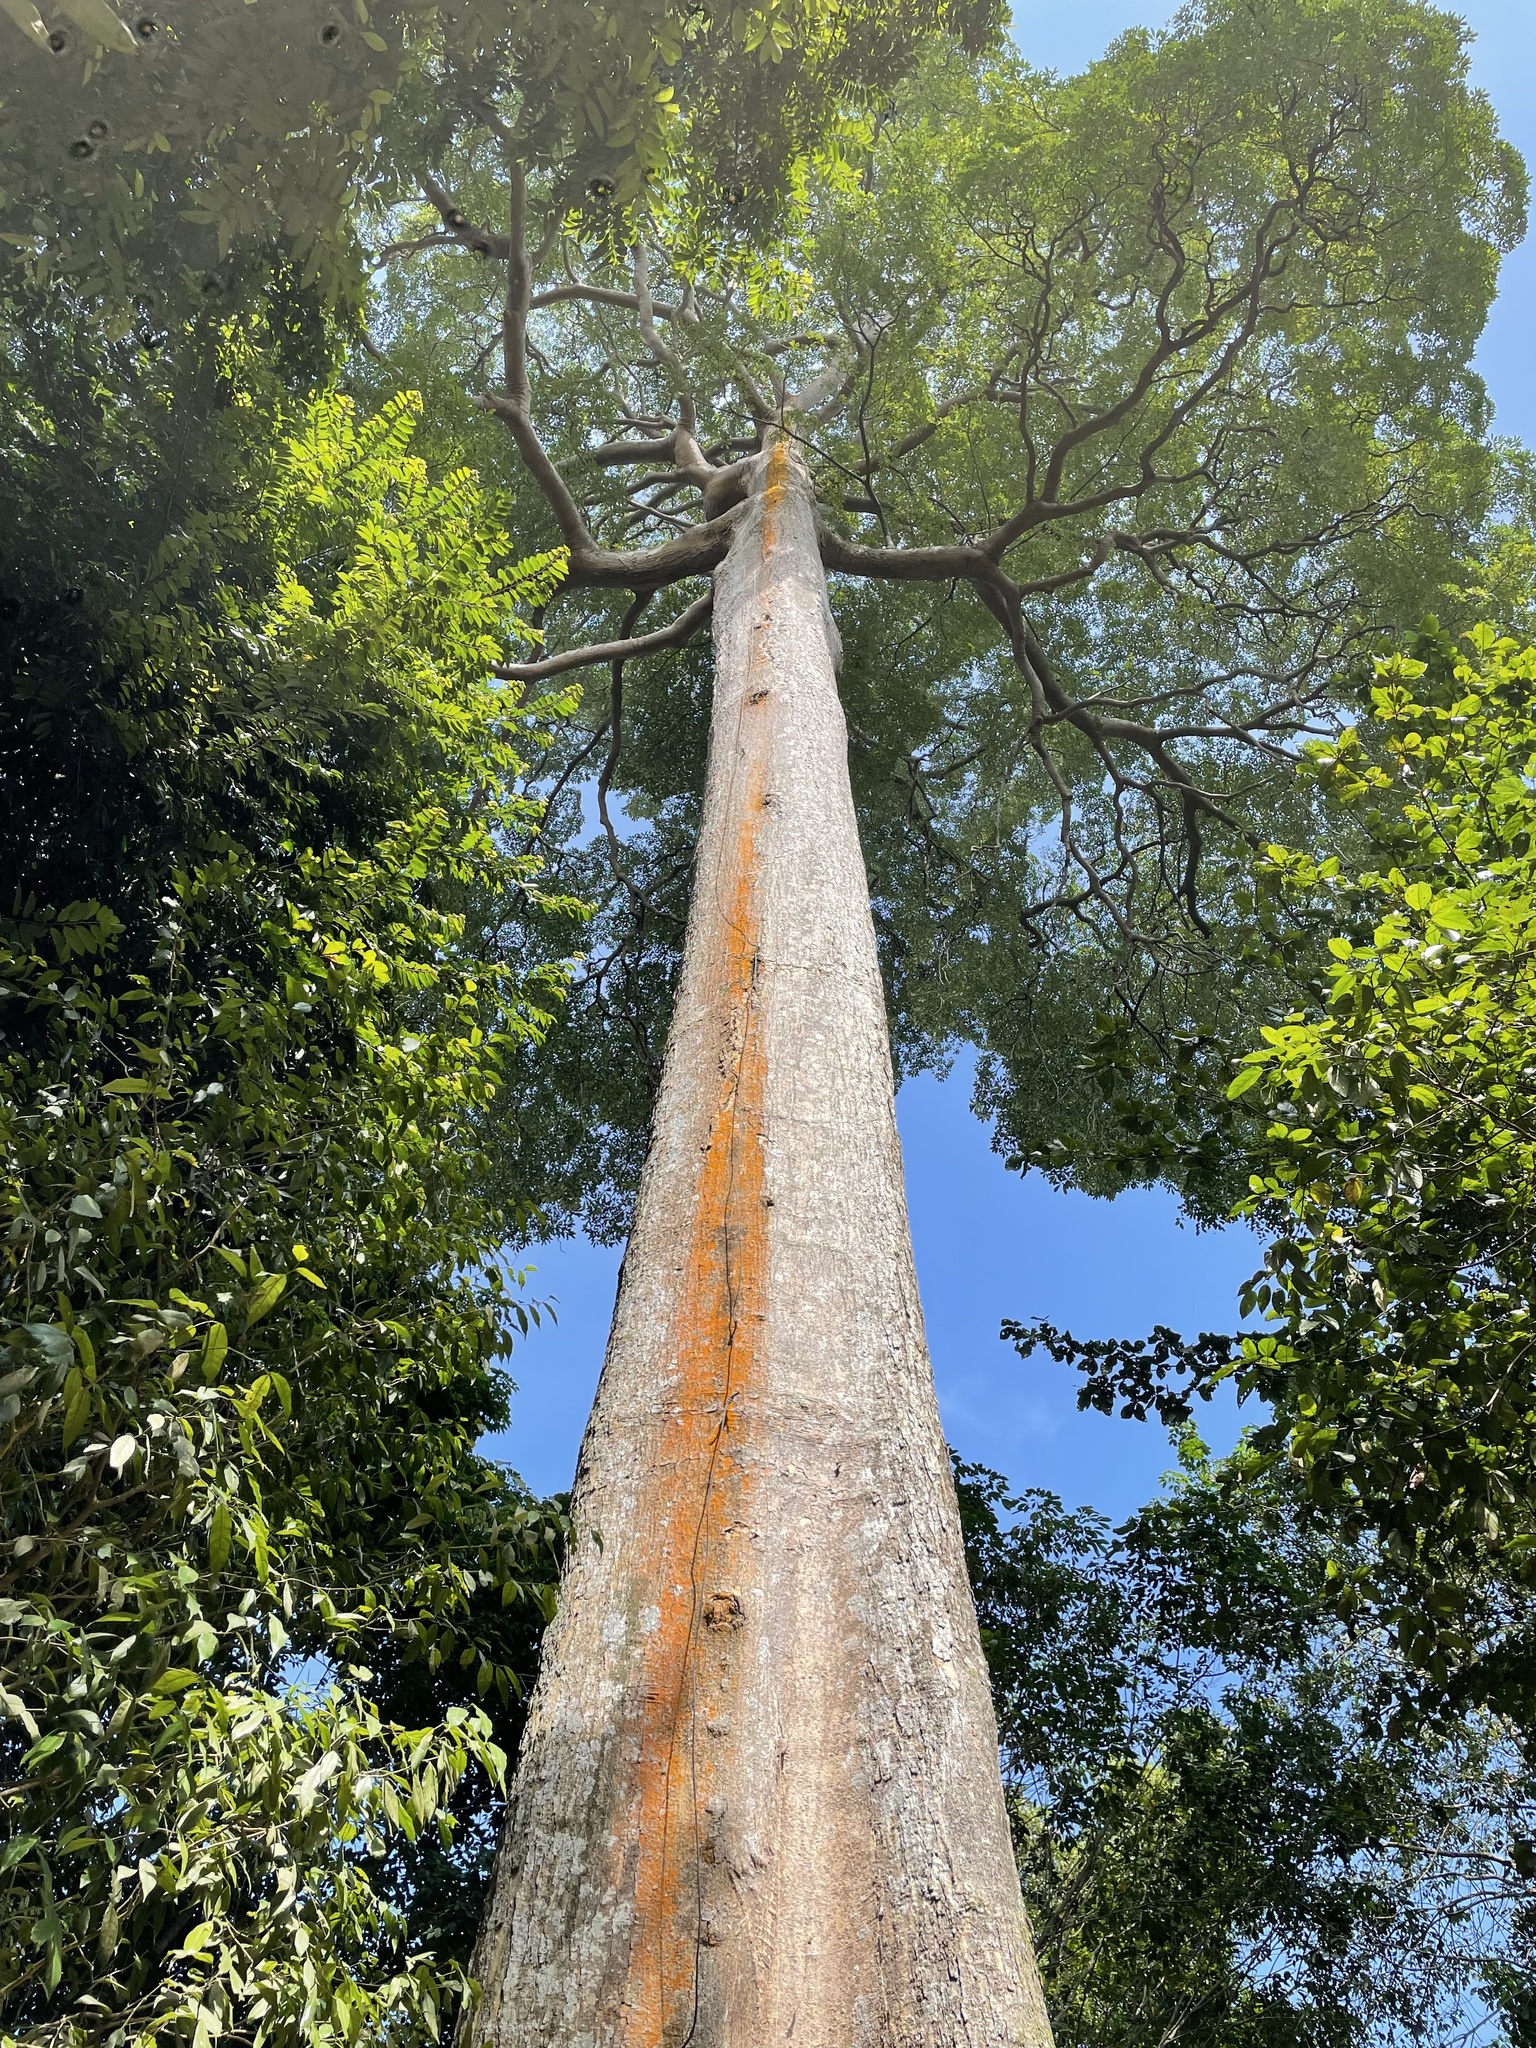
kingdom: Plantae
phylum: Tracheophyta
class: Magnoliopsida
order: Gentianales
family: Apocynaceae
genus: Alstonia
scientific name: Alstonia angustiloba
